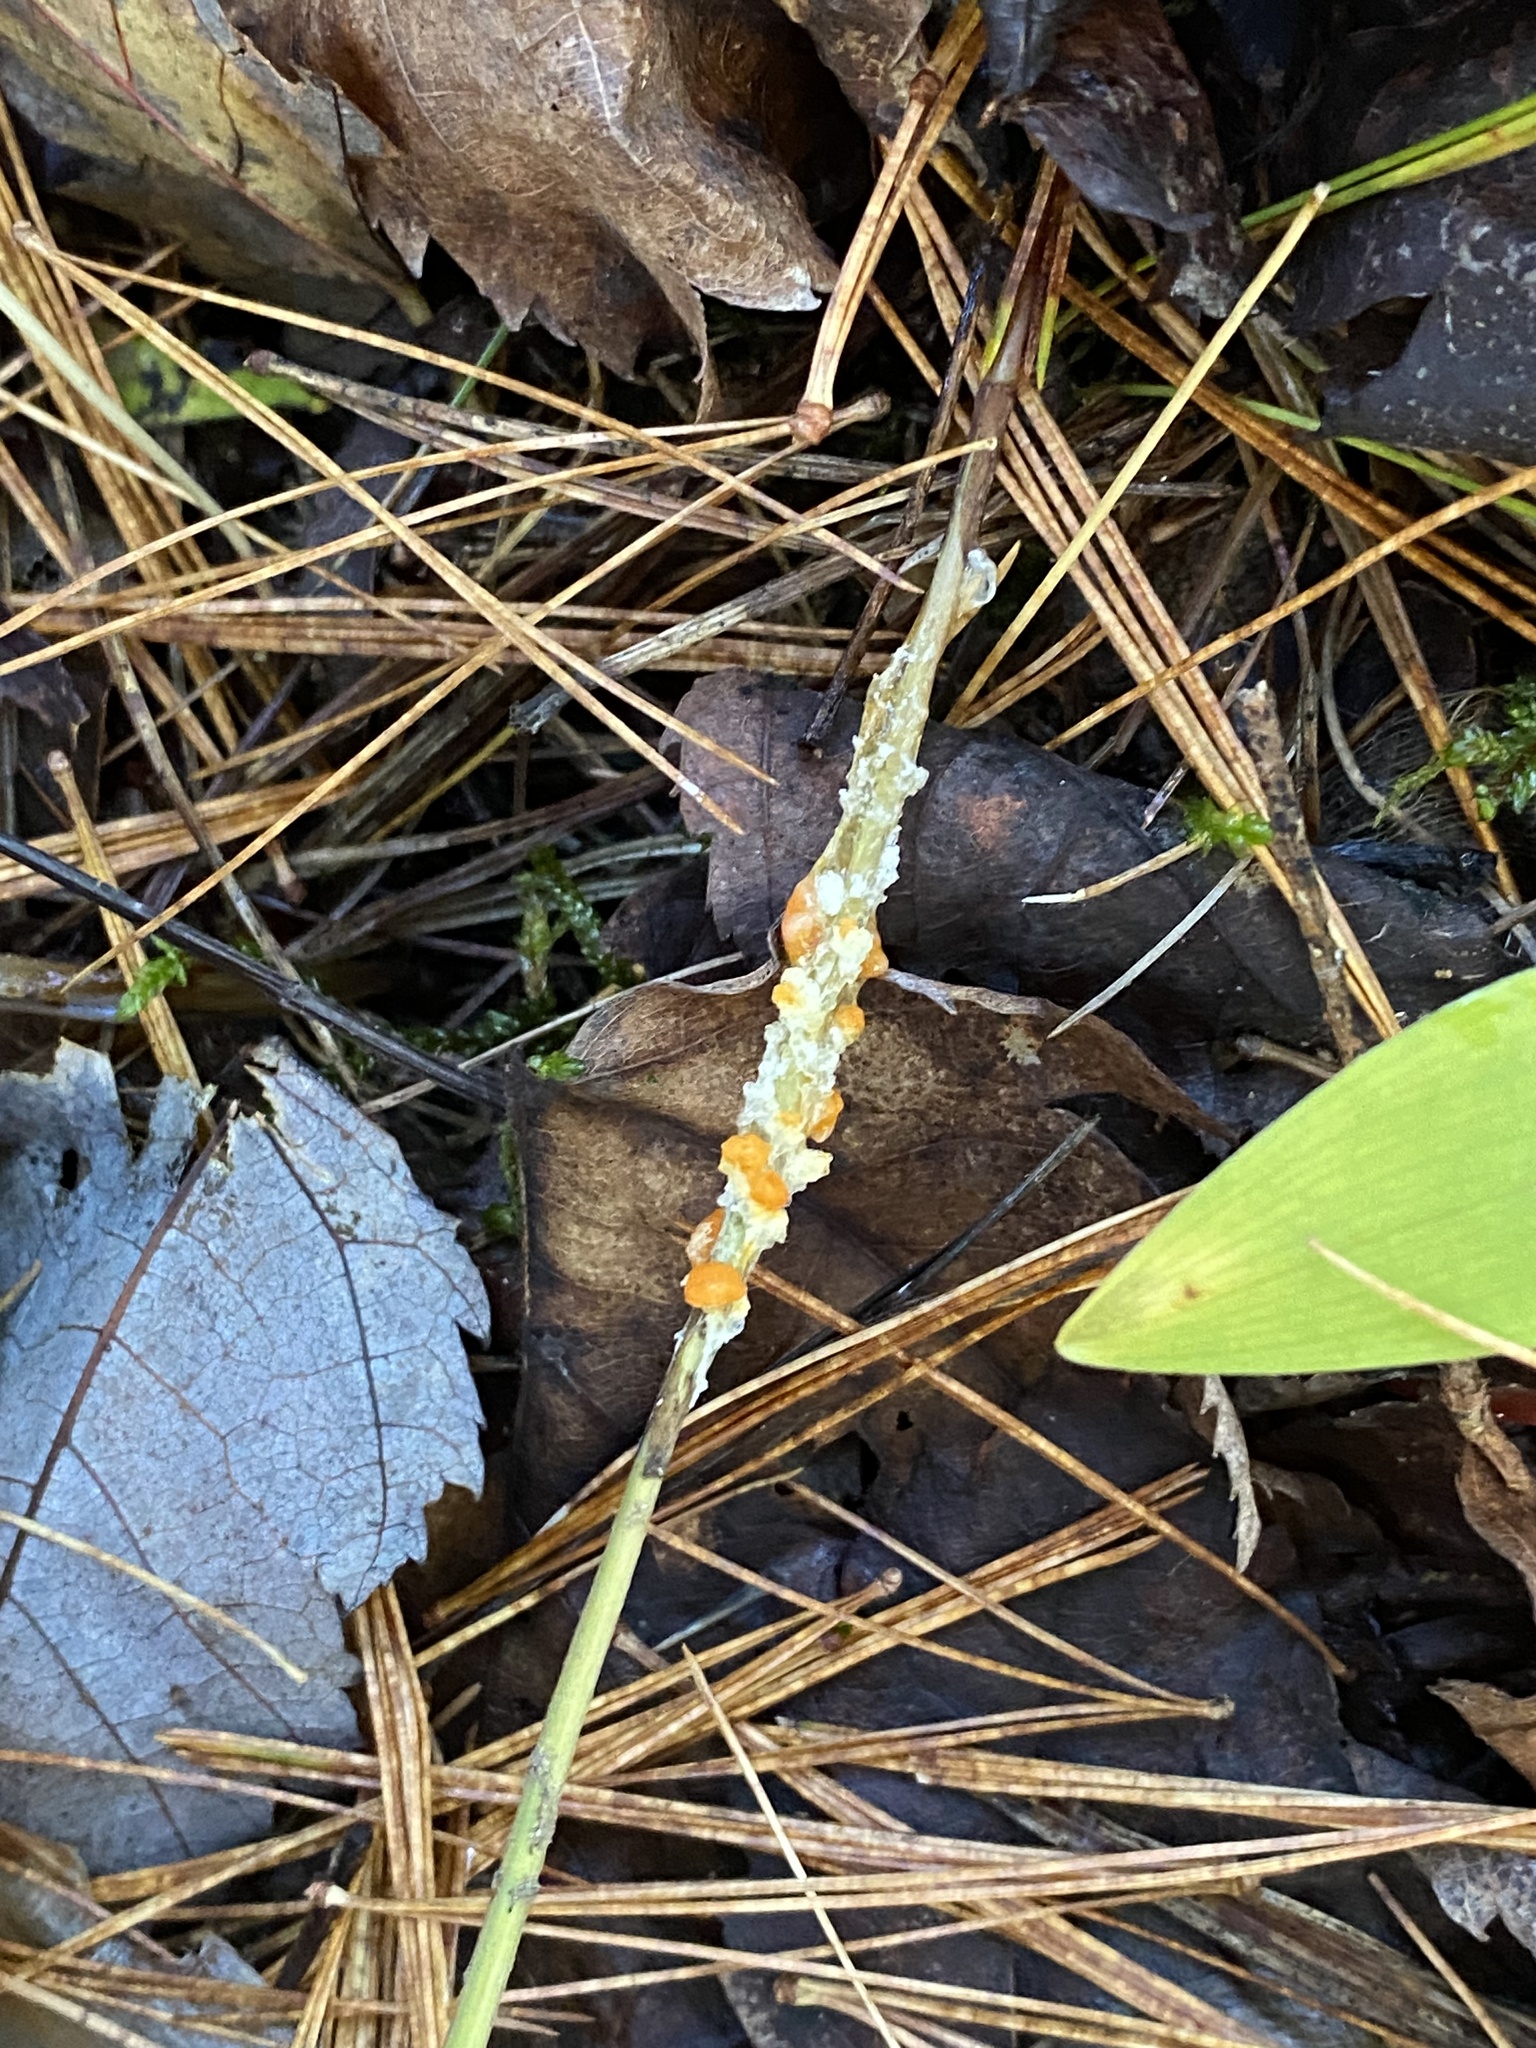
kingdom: Protozoa
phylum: Mycetozoa
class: Myxomycetes
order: Physarales
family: Physaraceae
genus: Fuligo
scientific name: Fuligo muscorum
